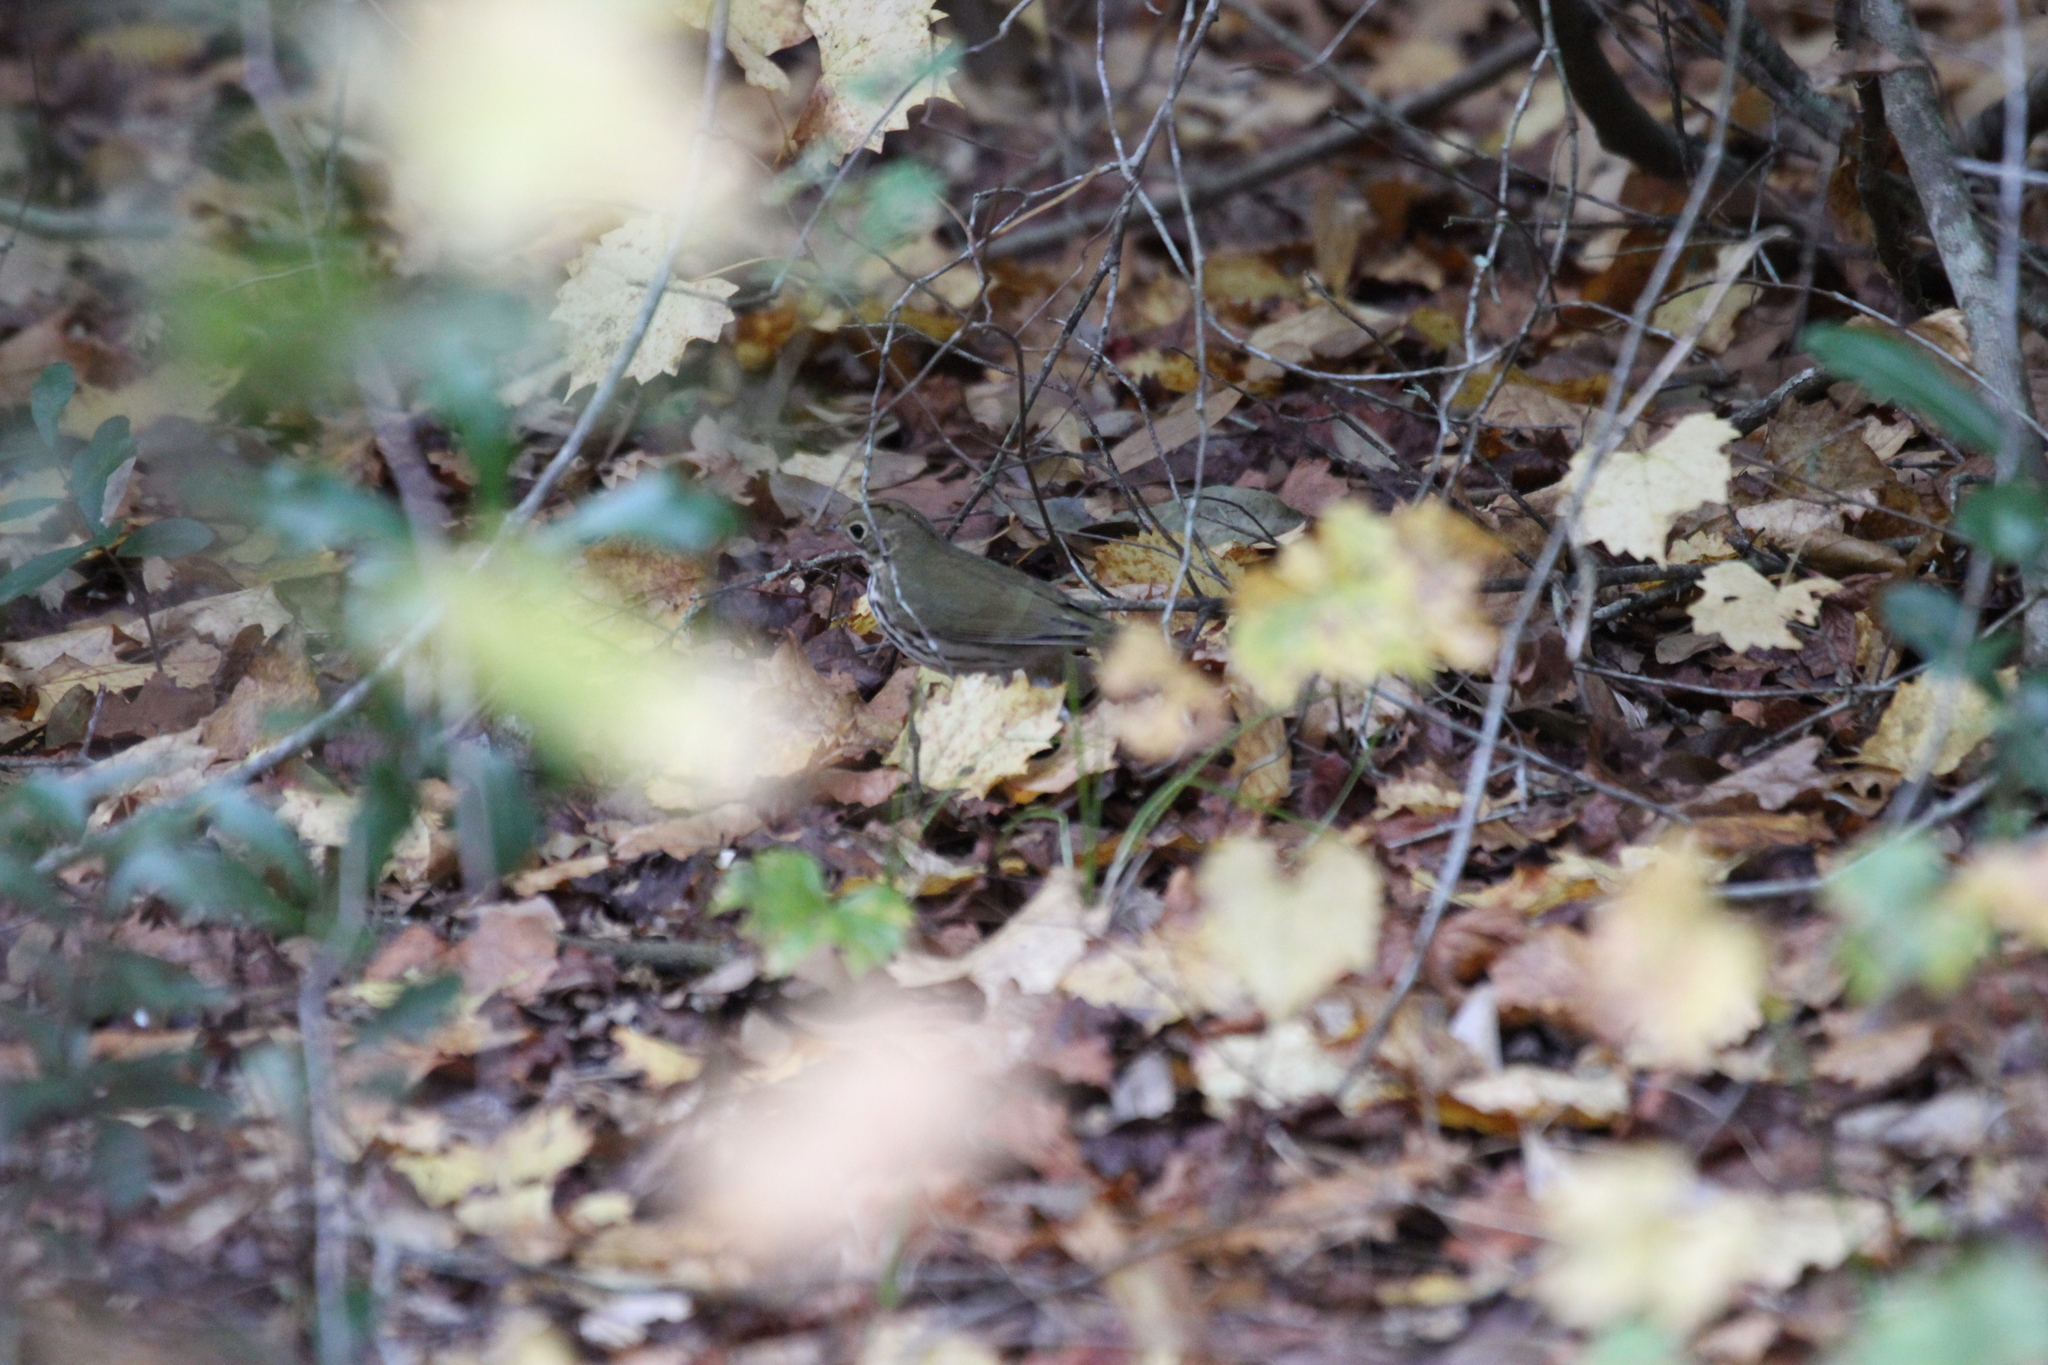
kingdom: Animalia
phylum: Chordata
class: Aves
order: Passeriformes
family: Parulidae
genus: Seiurus
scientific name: Seiurus aurocapilla
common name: Ovenbird
